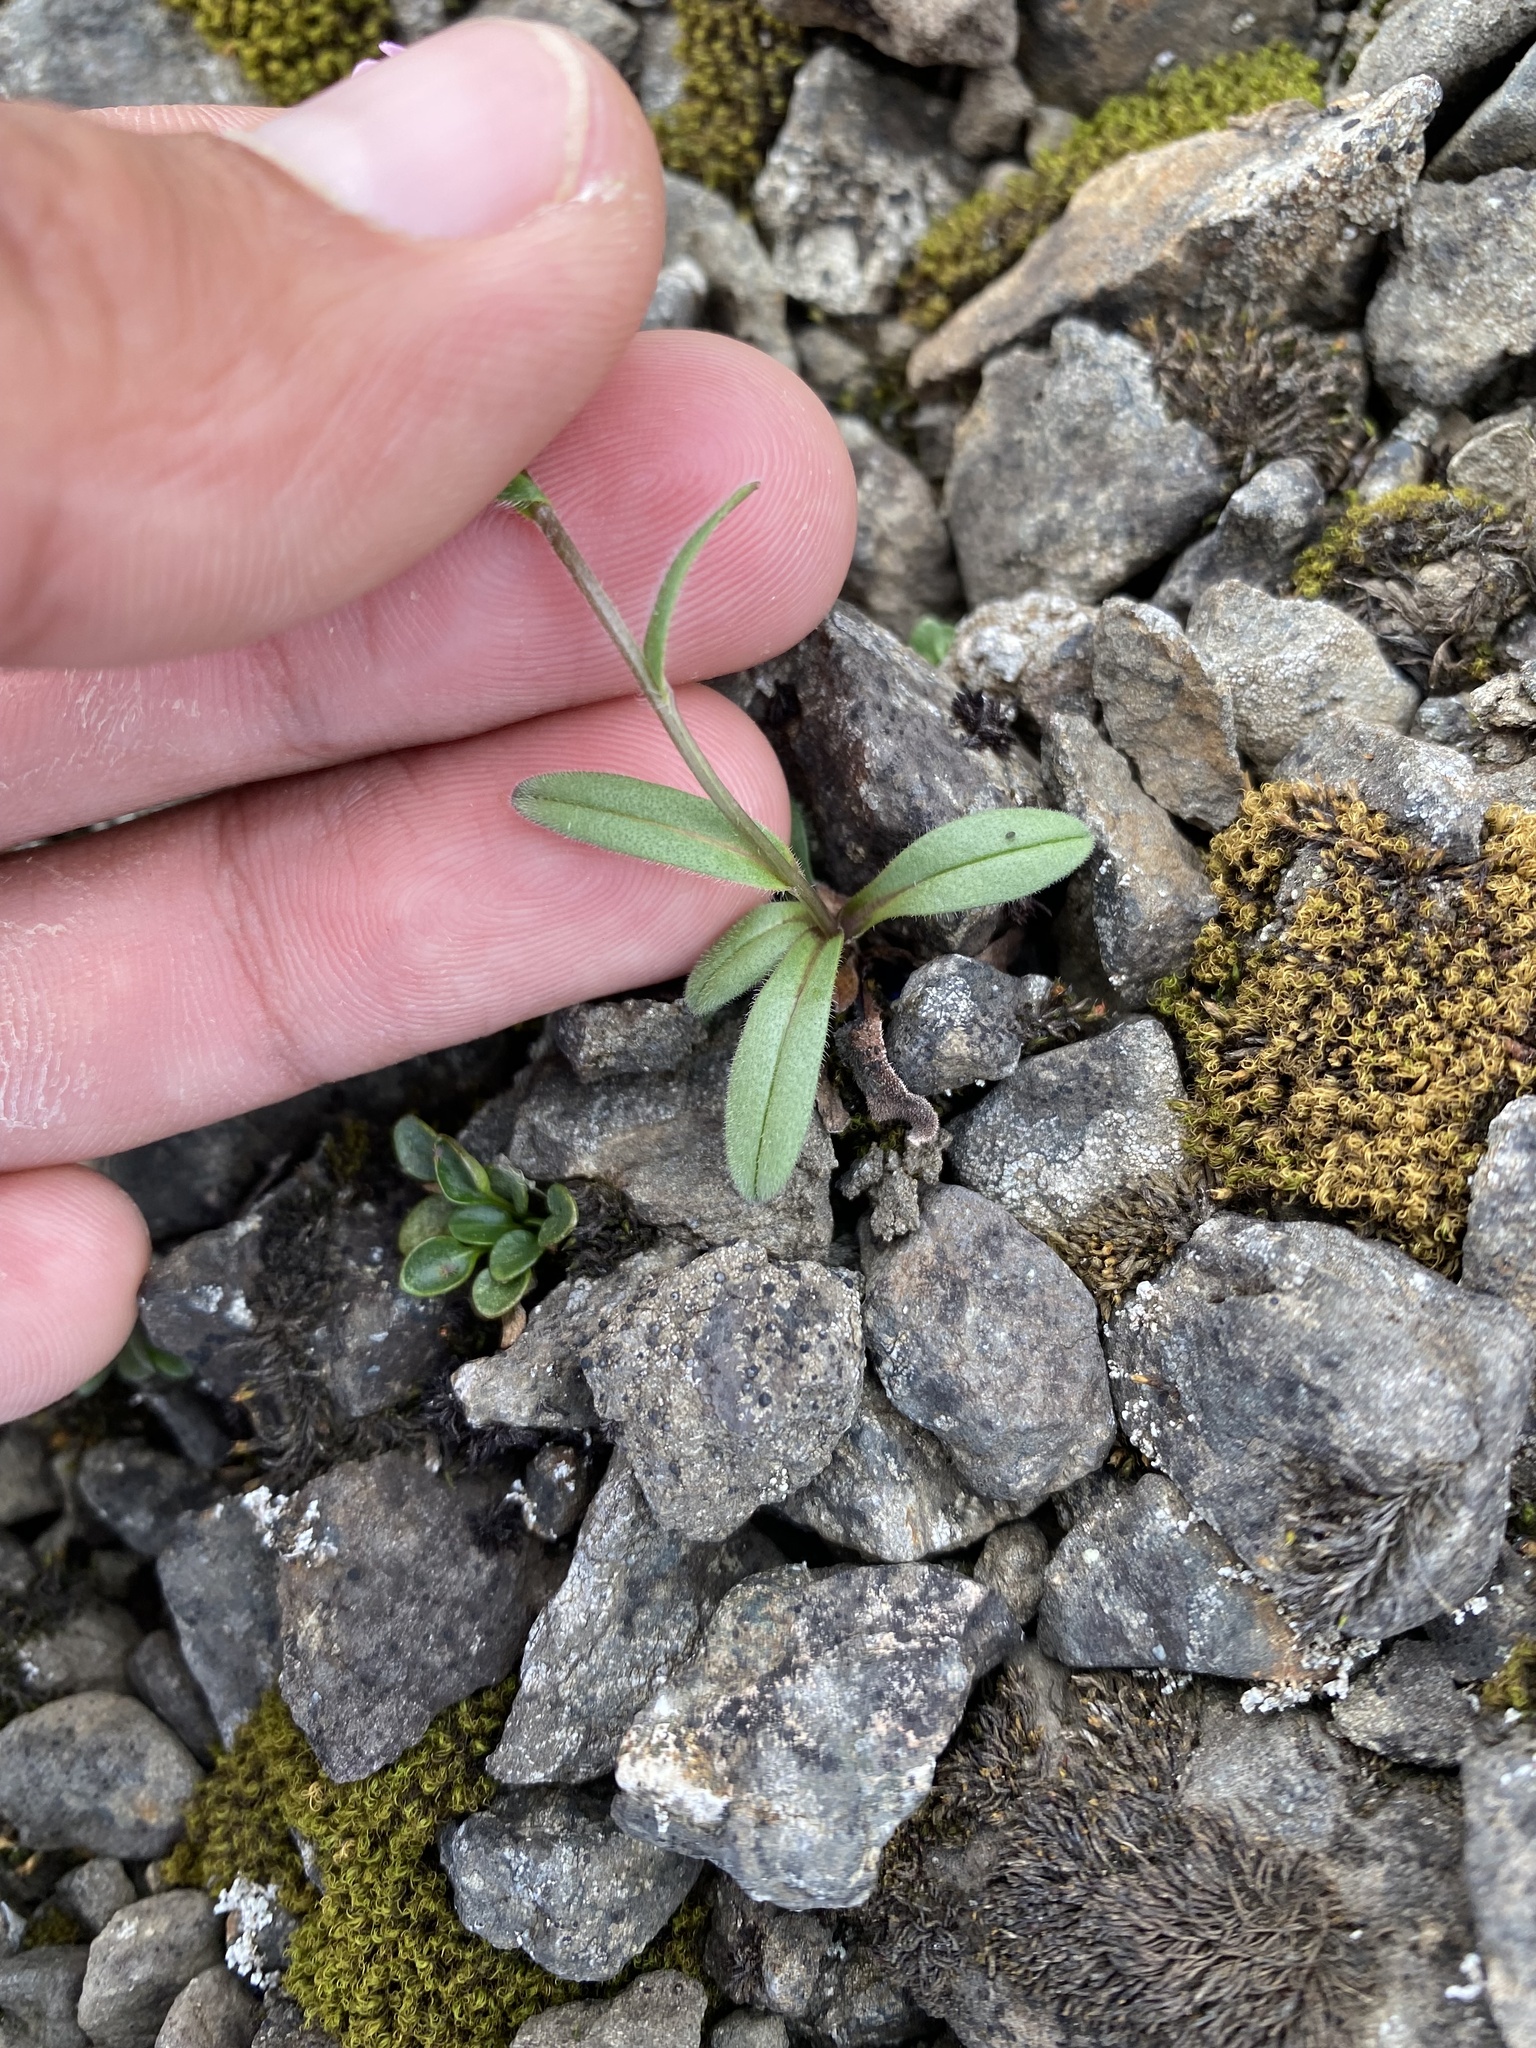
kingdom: Plantae
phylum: Tracheophyta
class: Magnoliopsida
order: Boraginales
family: Boraginaceae
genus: Myosotis
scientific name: Myosotis asiatica
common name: Asian forget-me-not
